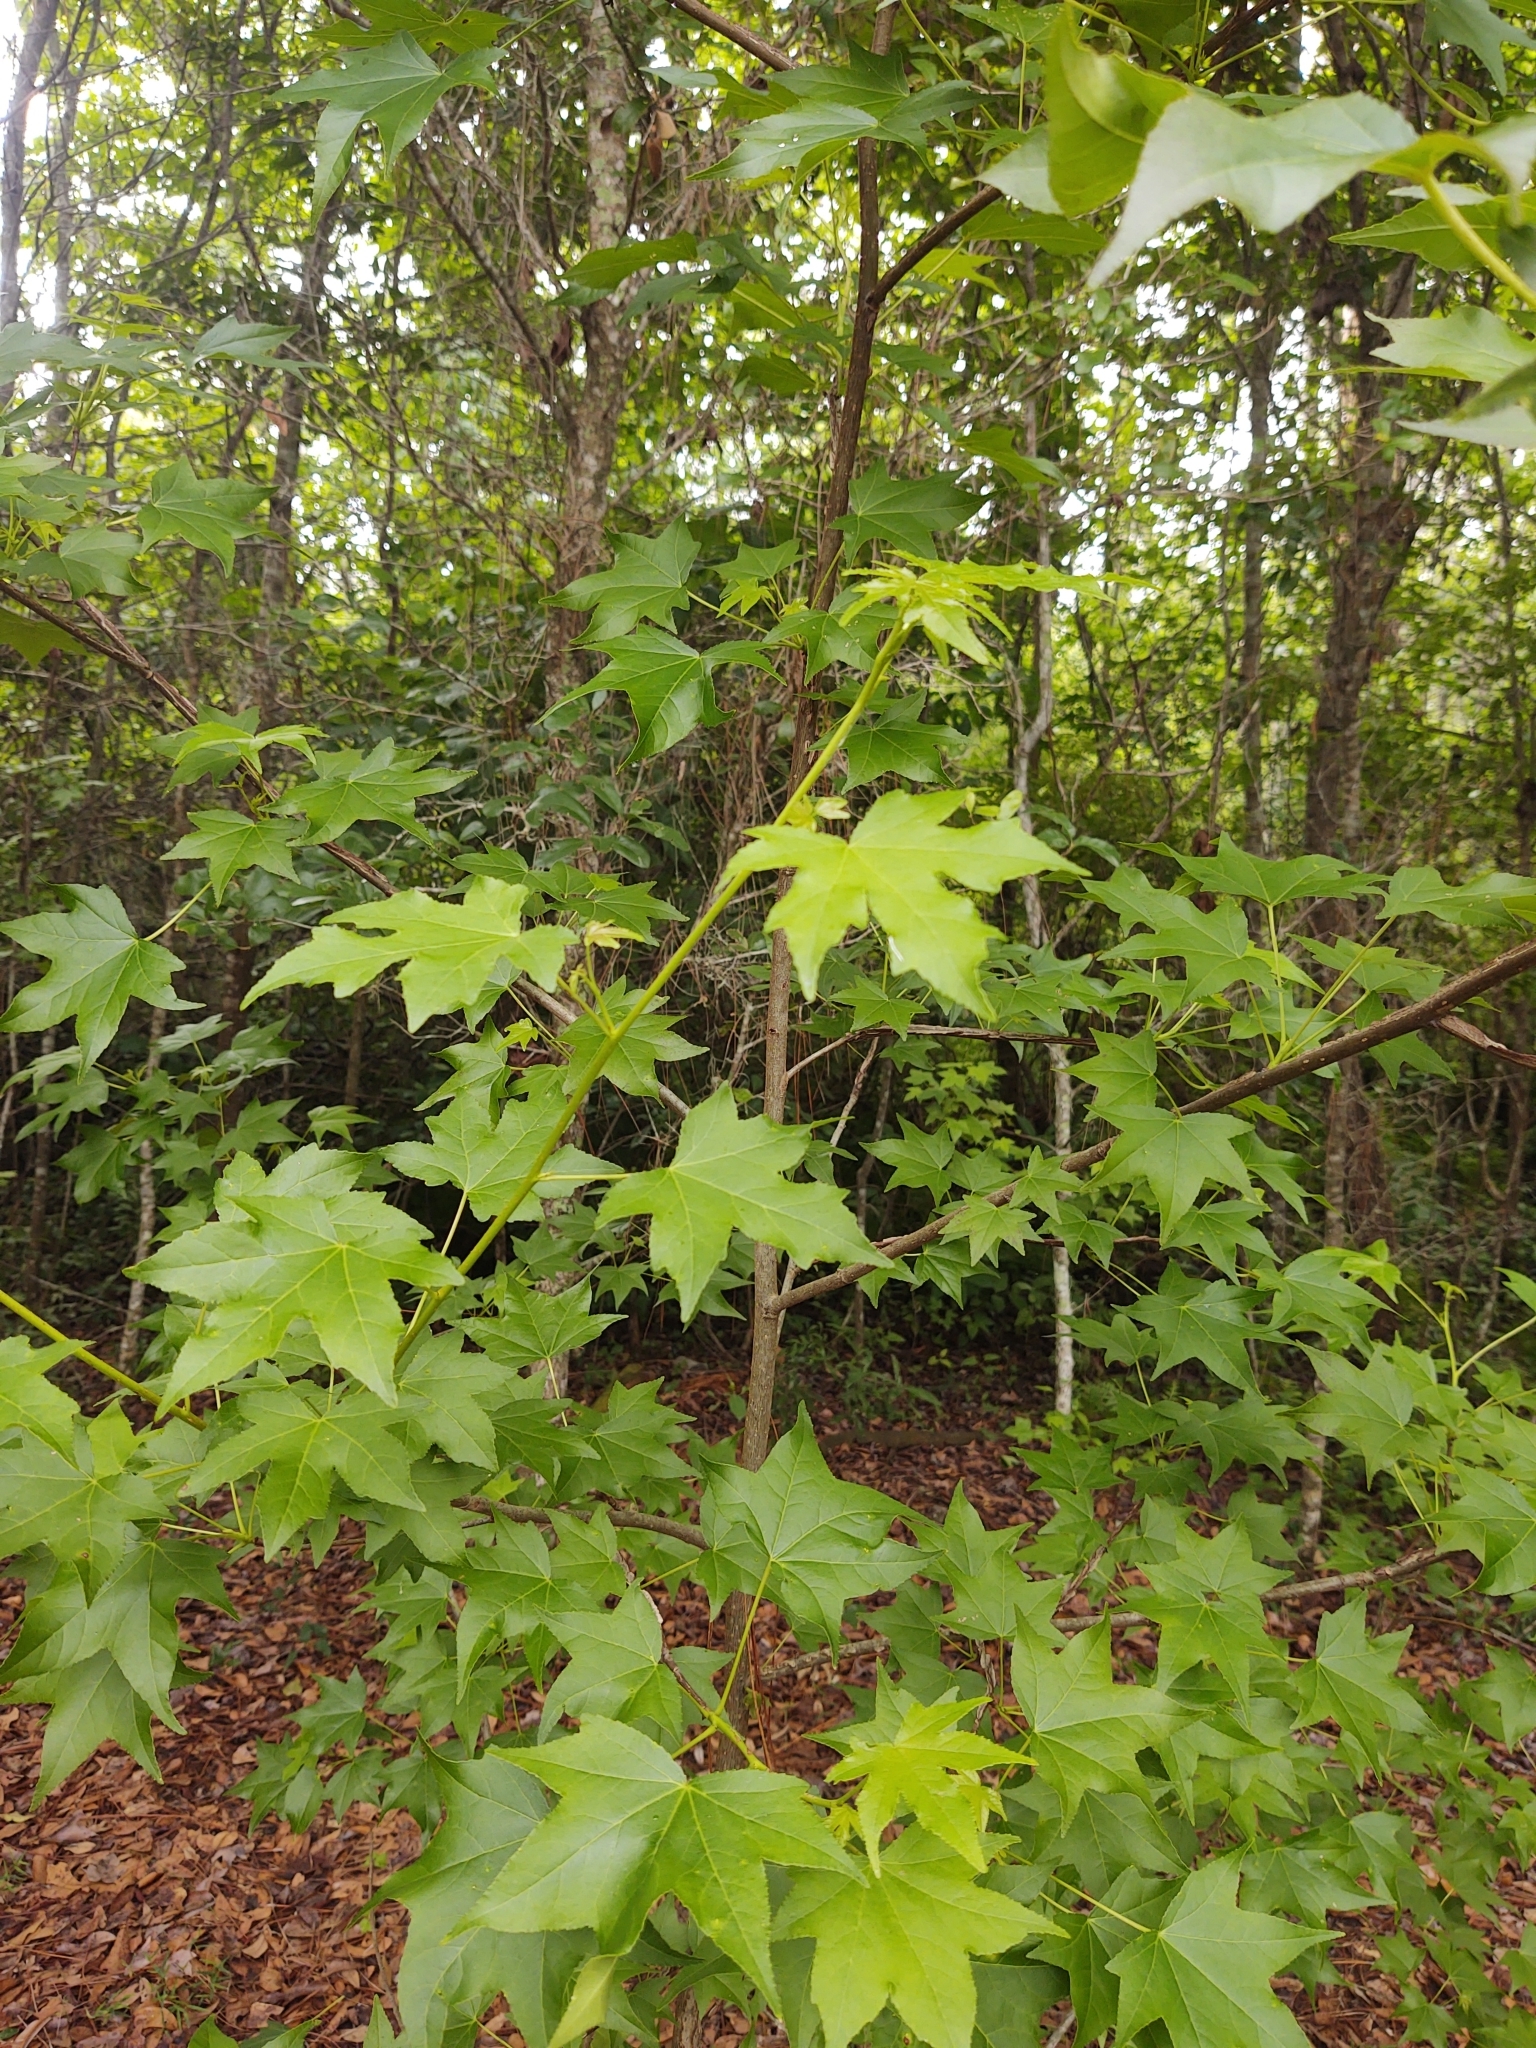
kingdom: Plantae
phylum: Tracheophyta
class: Magnoliopsida
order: Saxifragales
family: Altingiaceae
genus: Liquidambar
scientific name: Liquidambar styraciflua
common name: Sweet gum
